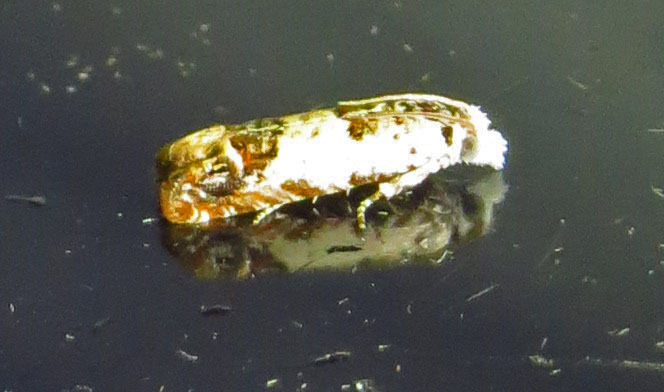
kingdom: Animalia
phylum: Arthropoda
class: Insecta
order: Lepidoptera
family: Tortricidae
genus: Eucosma
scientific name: Eucosma ornatula
